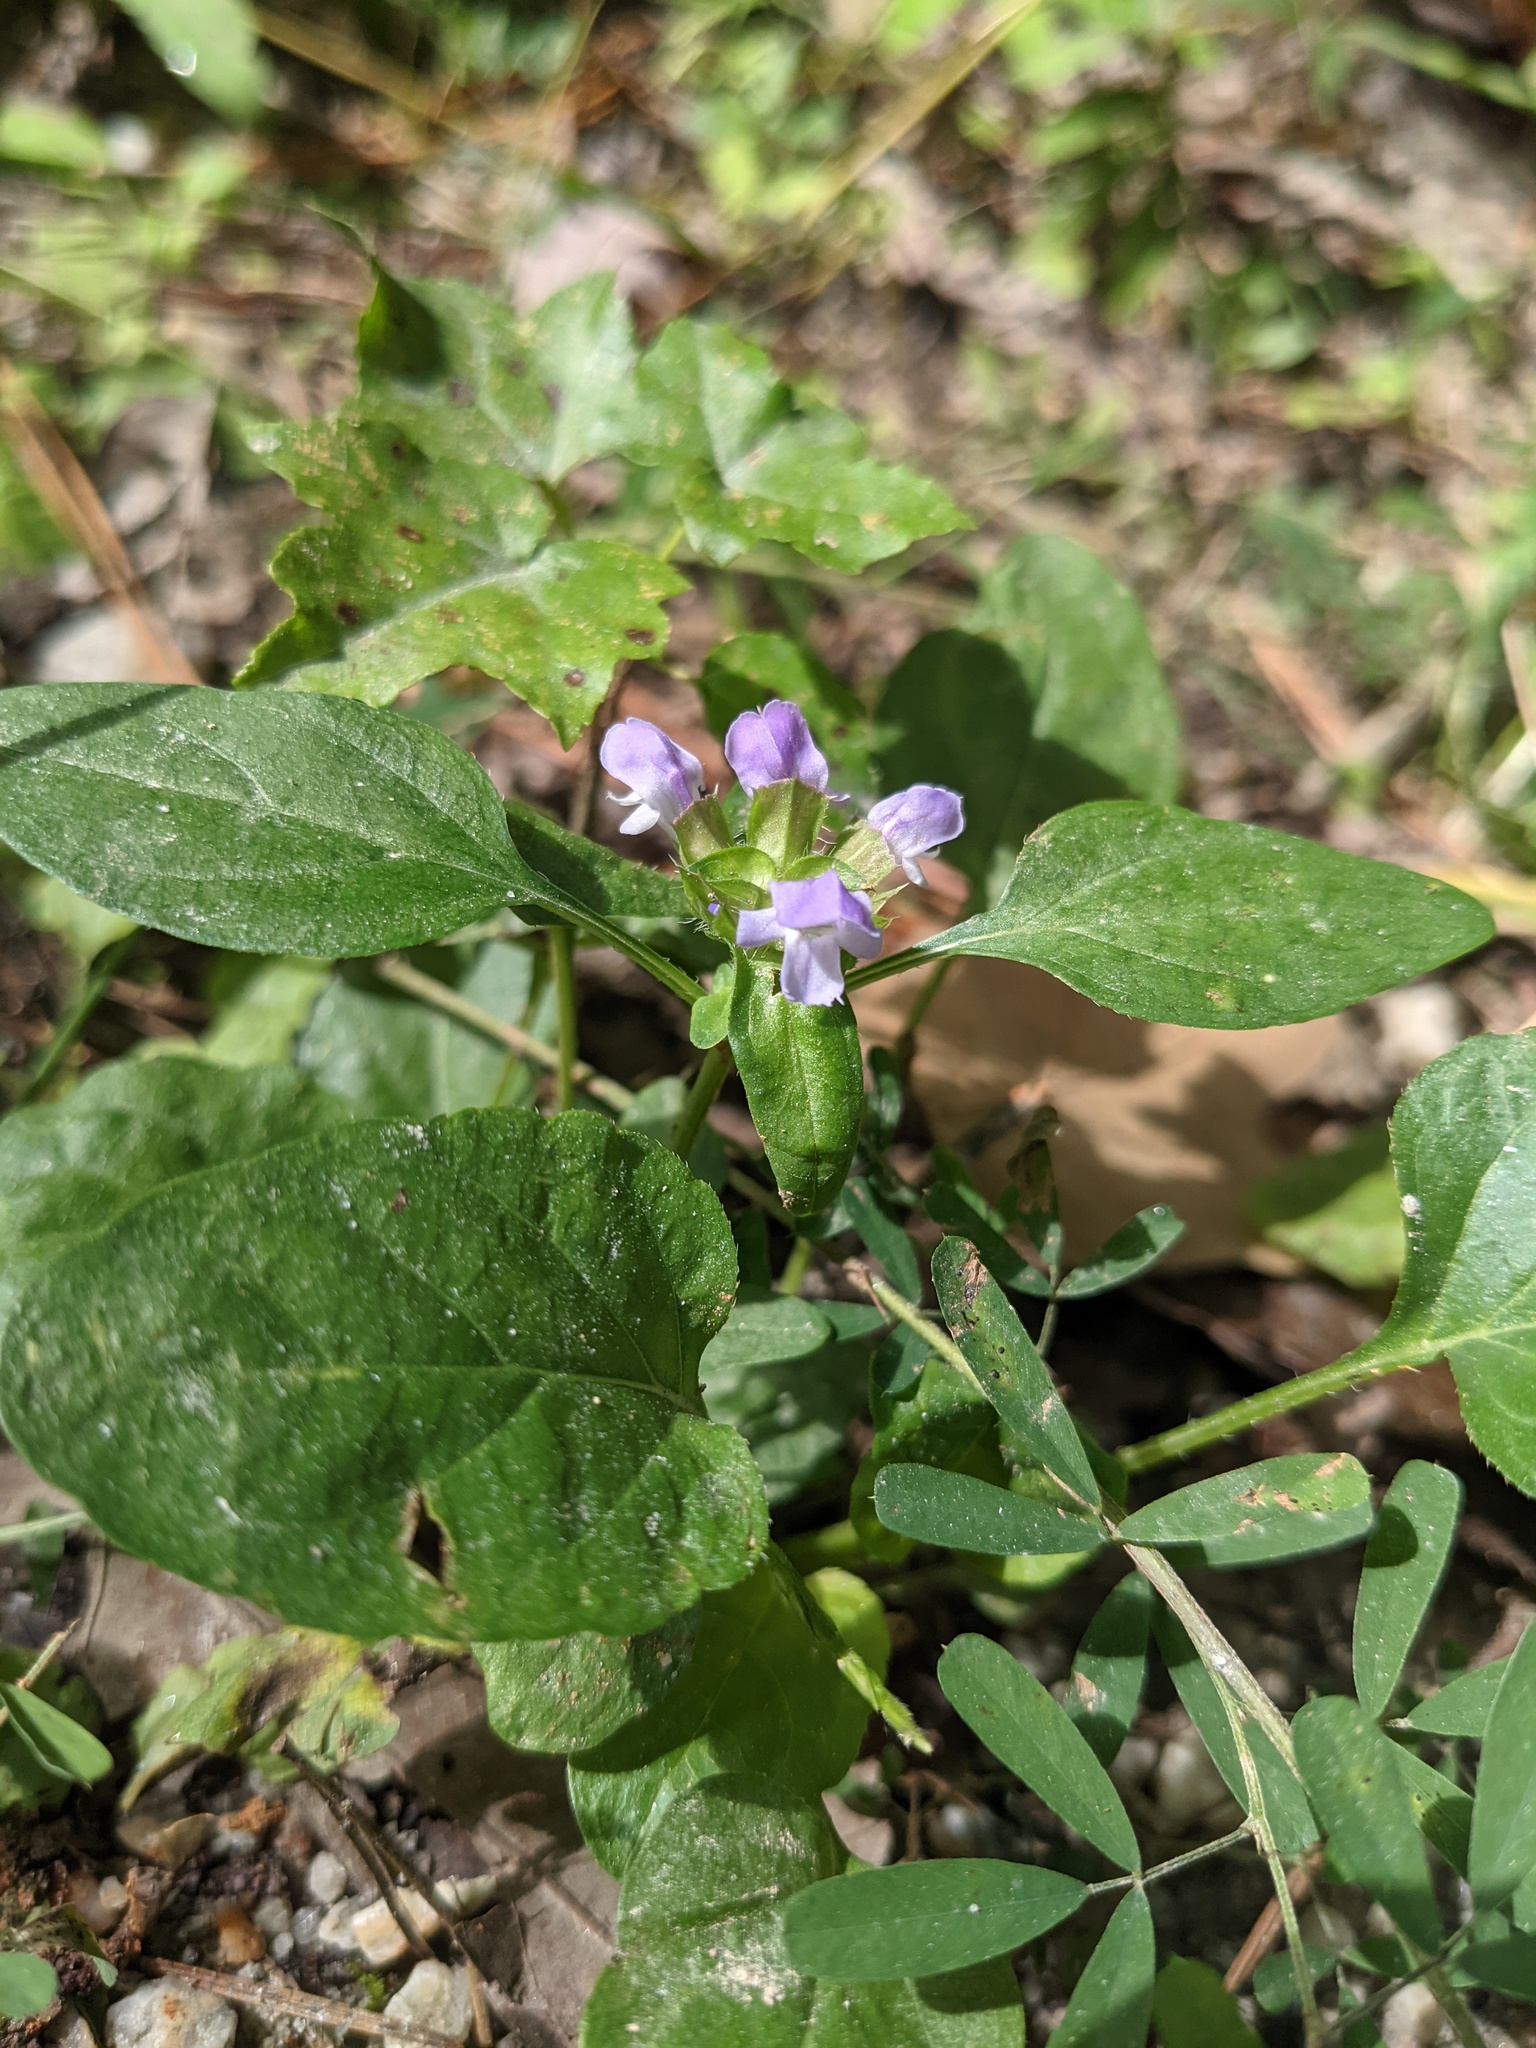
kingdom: Plantae
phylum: Tracheophyta
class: Magnoliopsida
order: Lamiales
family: Lamiaceae
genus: Prunella
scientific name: Prunella vulgaris
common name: Heal-all
